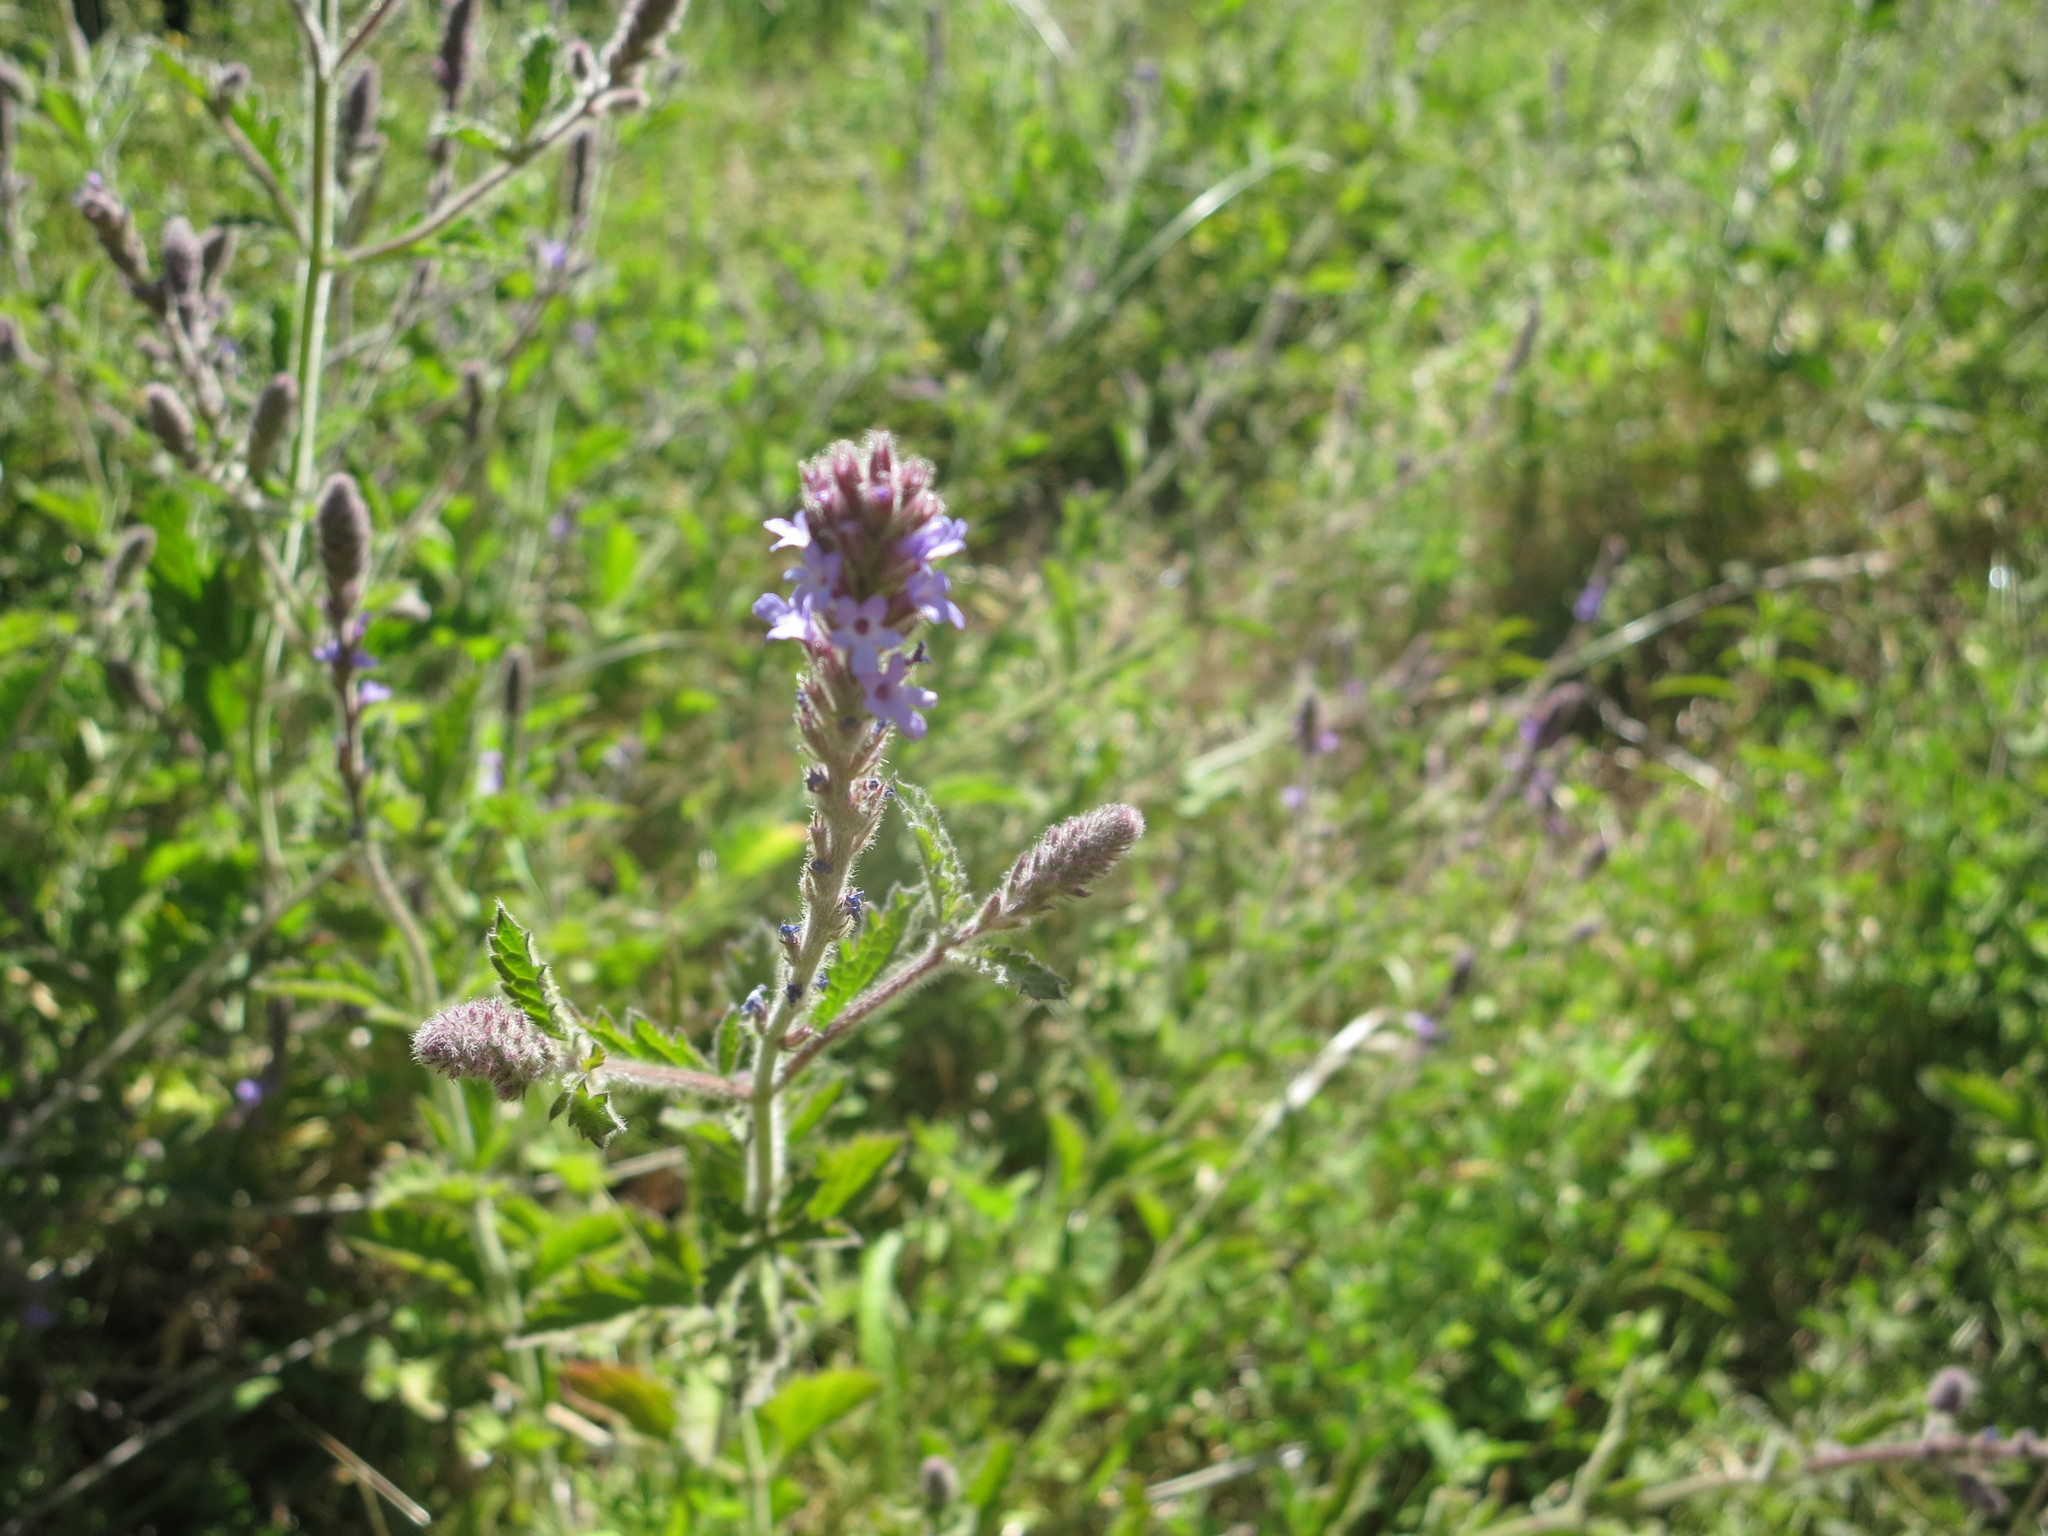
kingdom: Plantae
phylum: Tracheophyta
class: Magnoliopsida
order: Lamiales
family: Verbenaceae
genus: Verbena
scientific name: Verbena lasiostachys
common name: Vervain
